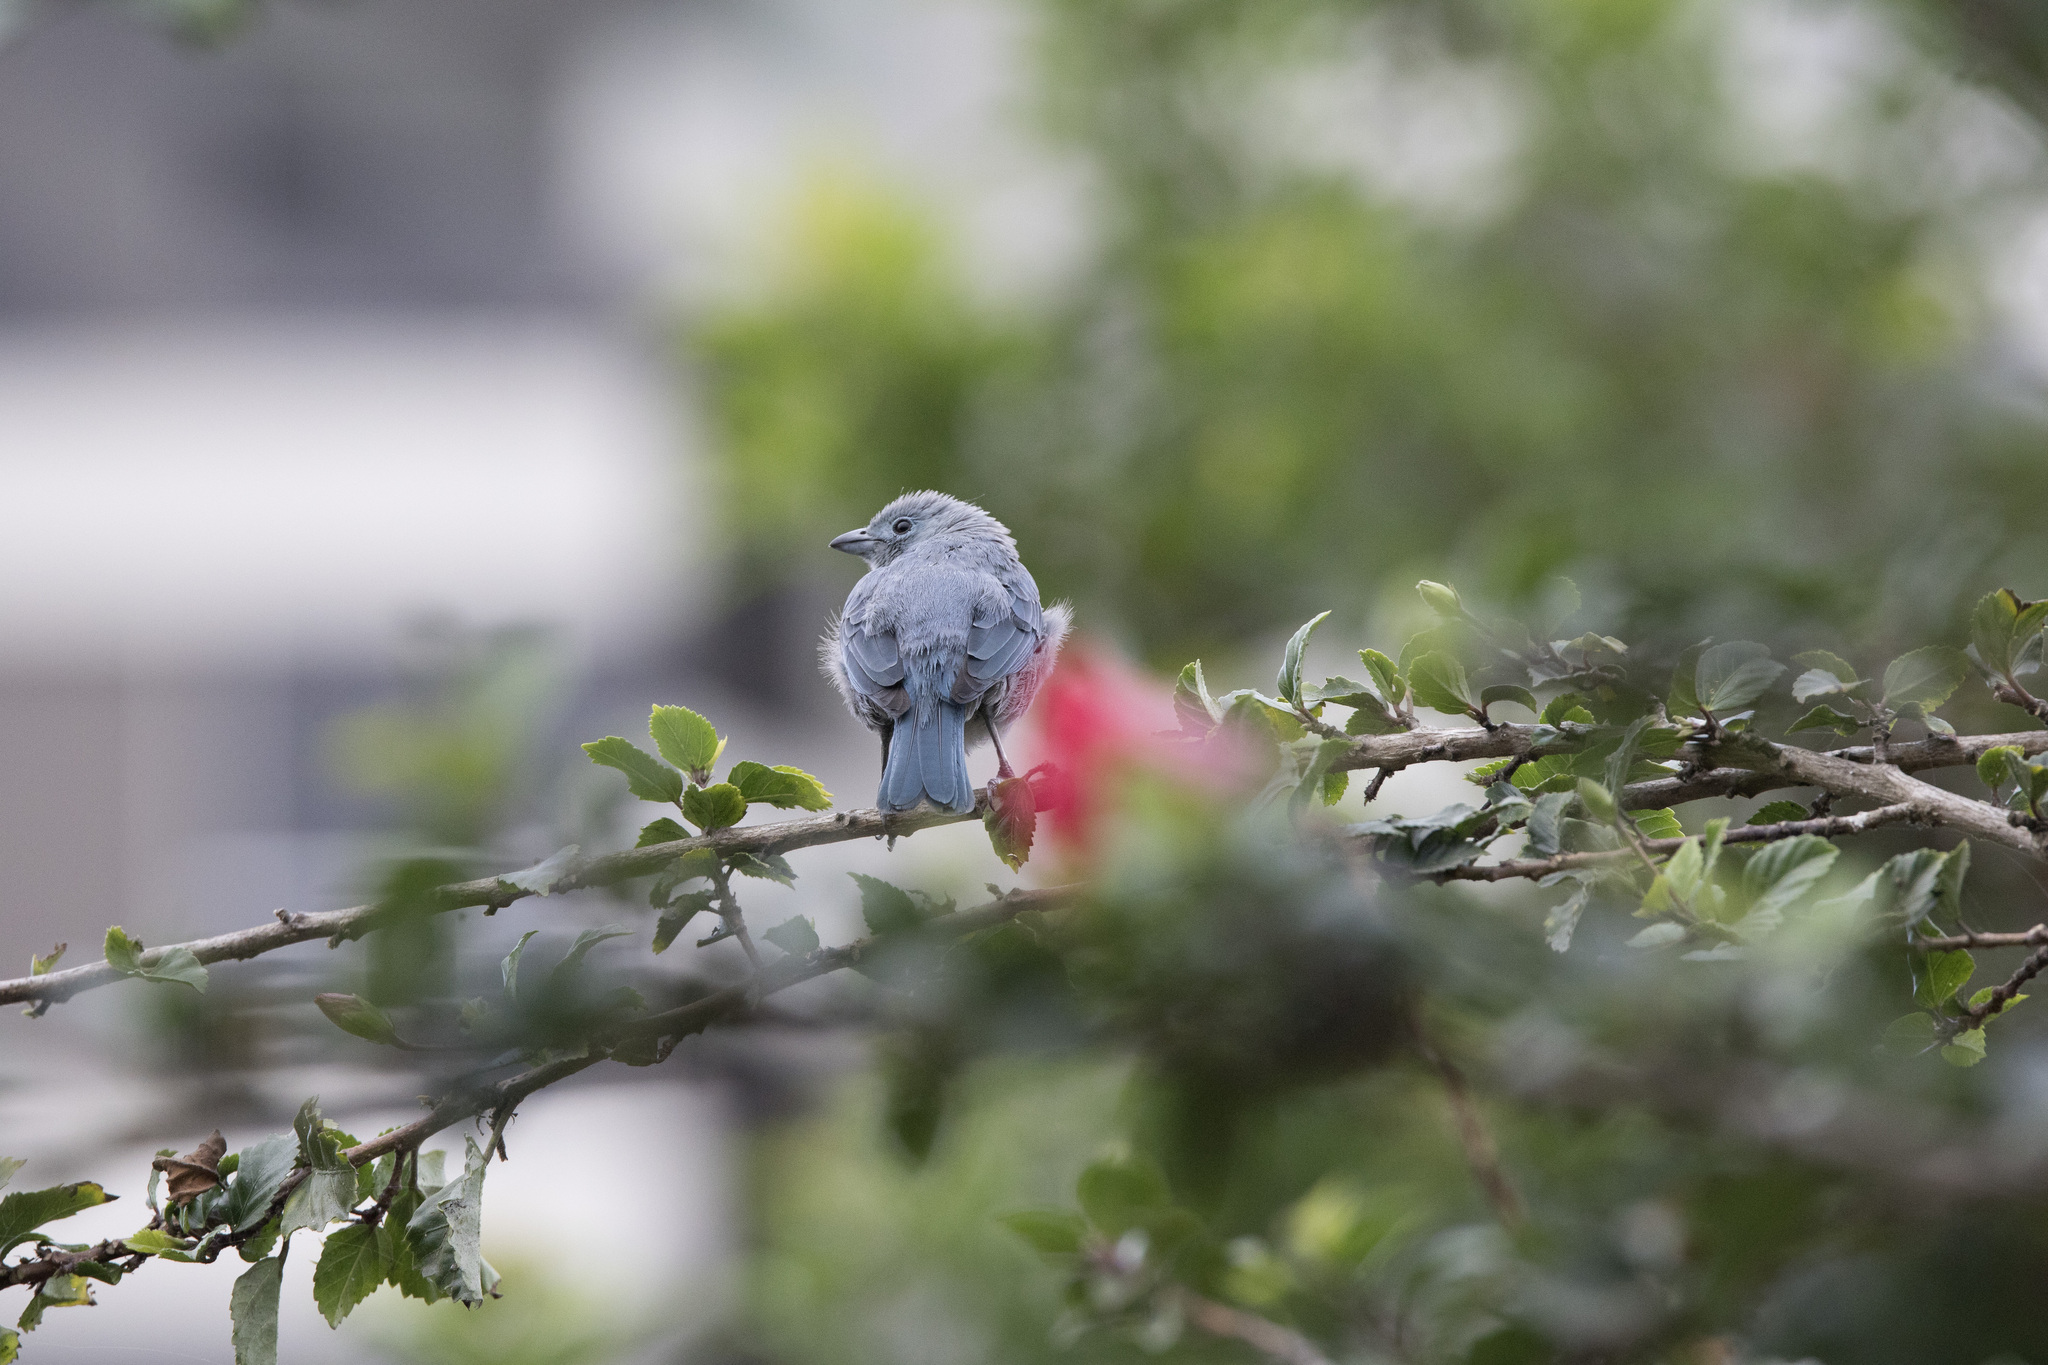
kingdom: Animalia
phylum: Chordata
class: Aves
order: Passeriformes
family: Thraupidae
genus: Thraupis
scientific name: Thraupis episcopus
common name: Blue-grey tanager
